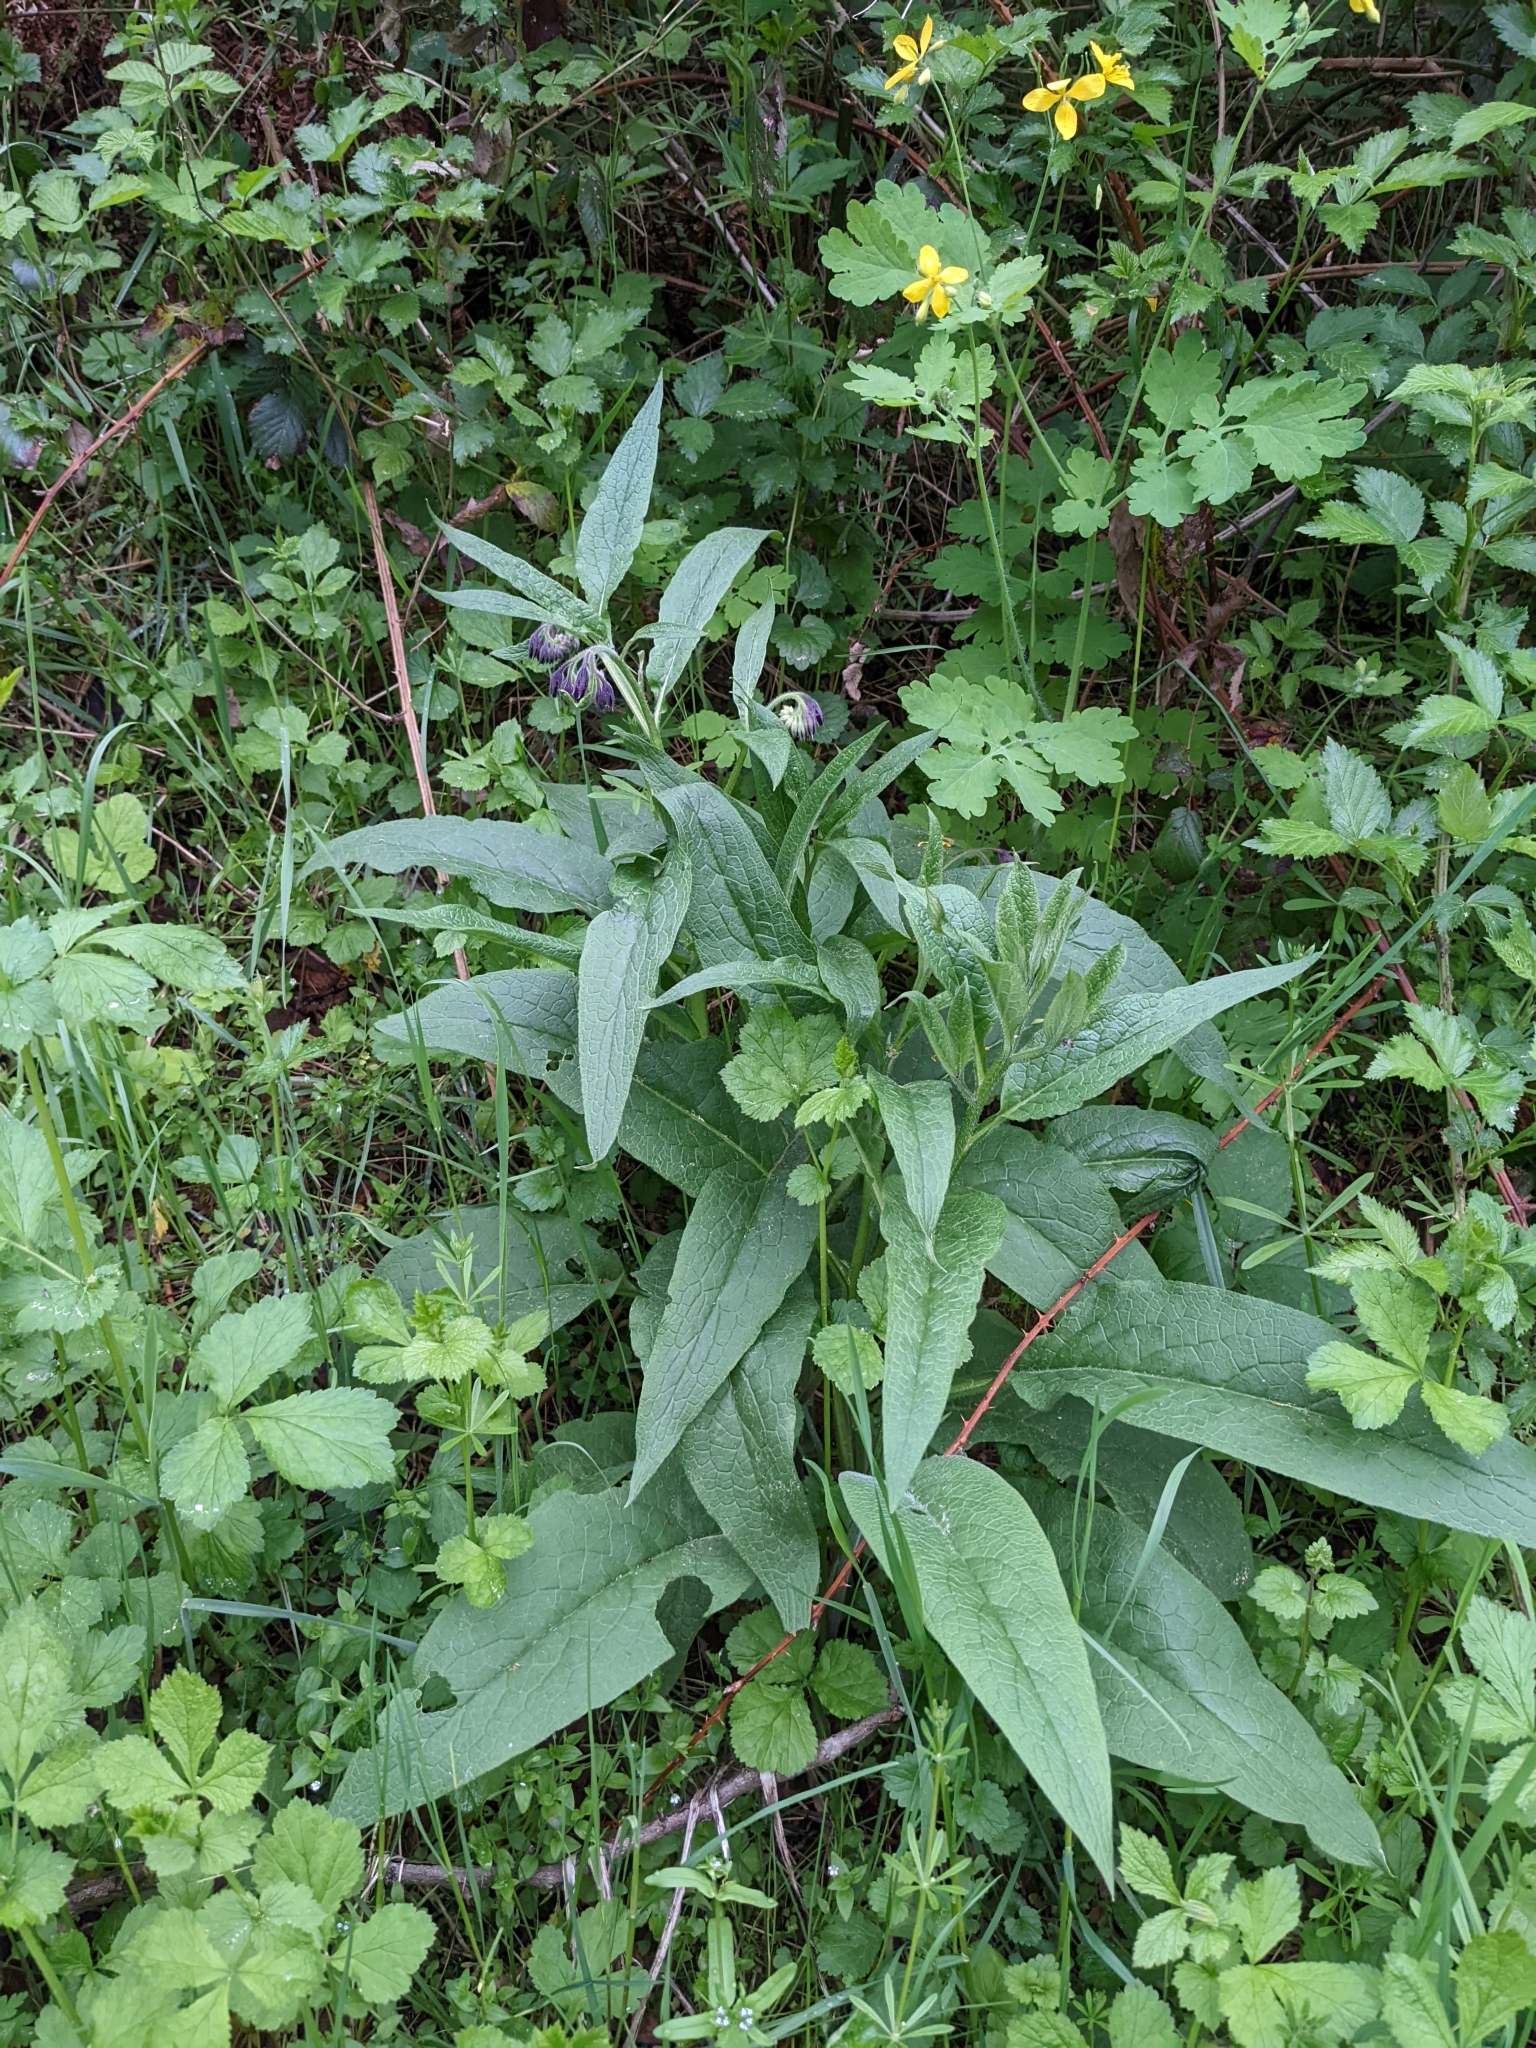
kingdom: Plantae
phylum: Tracheophyta
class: Magnoliopsida
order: Boraginales
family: Boraginaceae
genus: Symphytum
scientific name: Symphytum officinale
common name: Common comfrey
